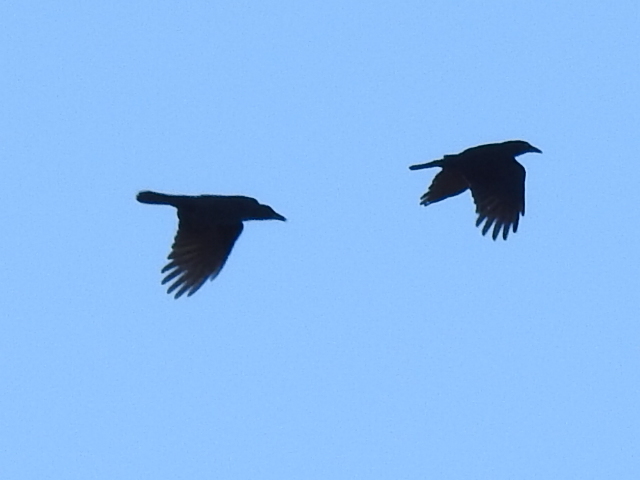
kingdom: Animalia
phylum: Chordata
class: Aves
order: Passeriformes
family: Corvidae
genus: Corvus
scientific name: Corvus brachyrhynchos
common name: American crow
